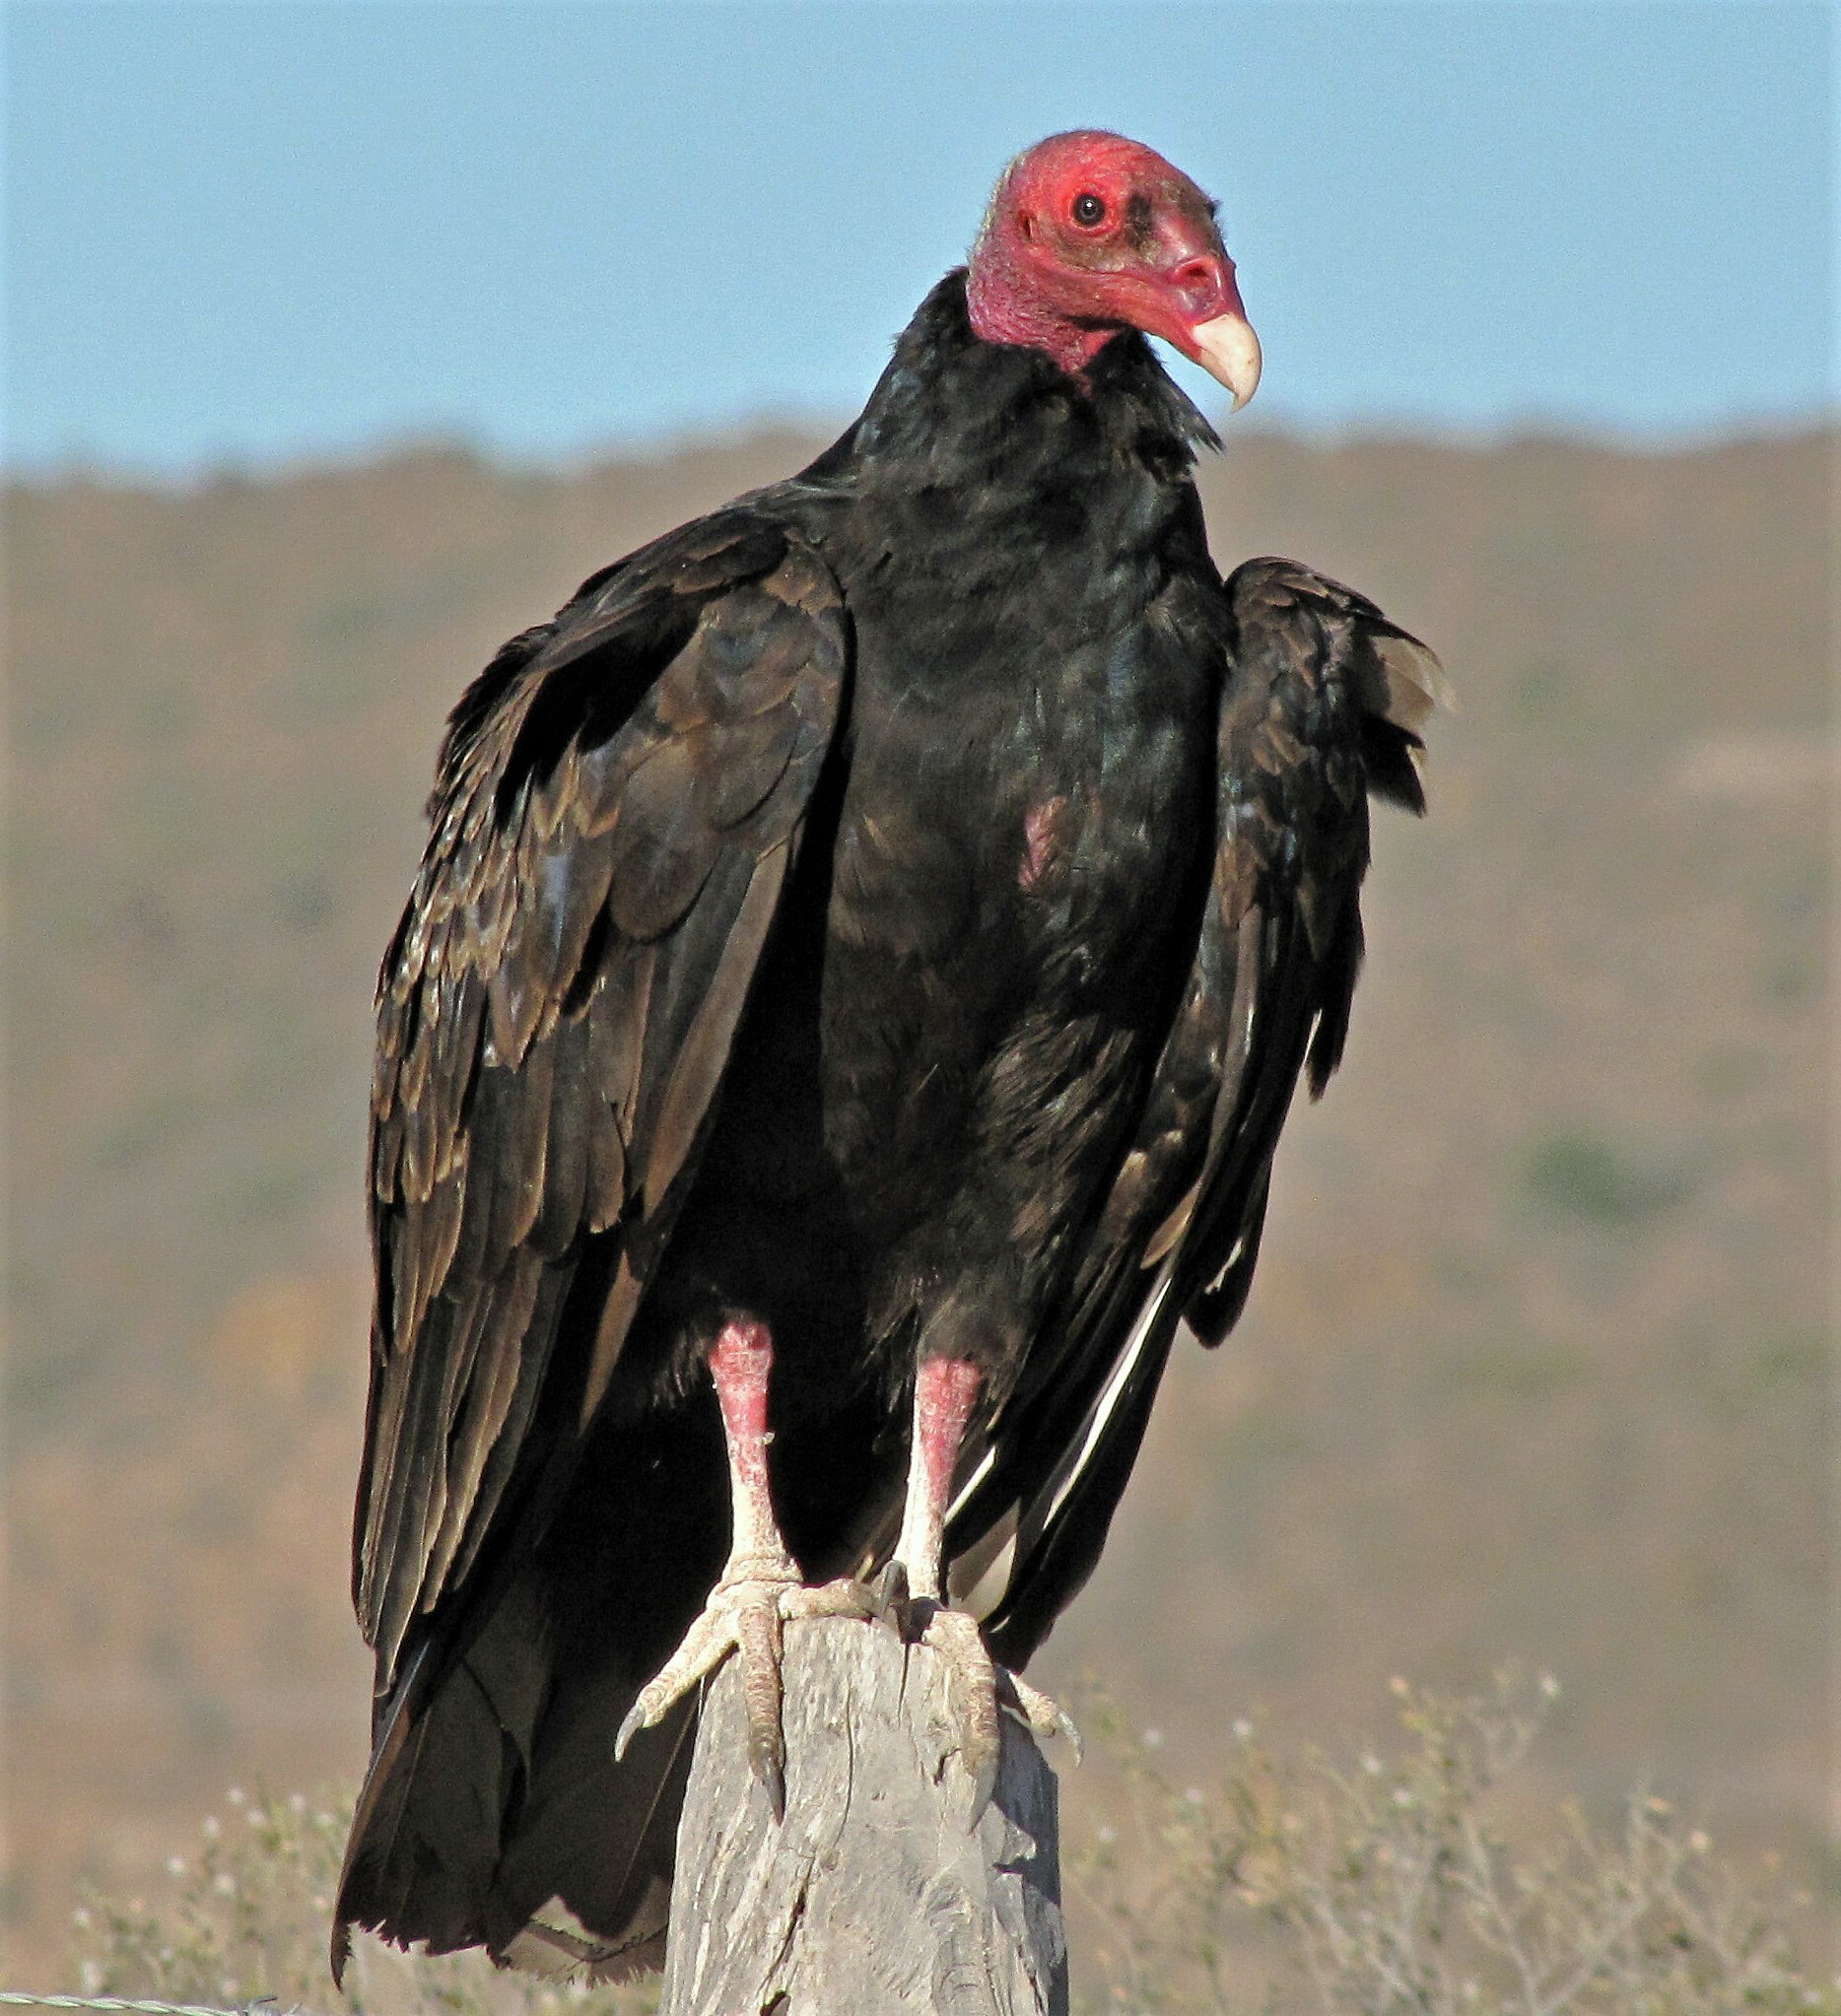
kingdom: Animalia
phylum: Chordata
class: Aves
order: Accipitriformes
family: Cathartidae
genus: Cathartes
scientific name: Cathartes aura
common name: Turkey vulture
